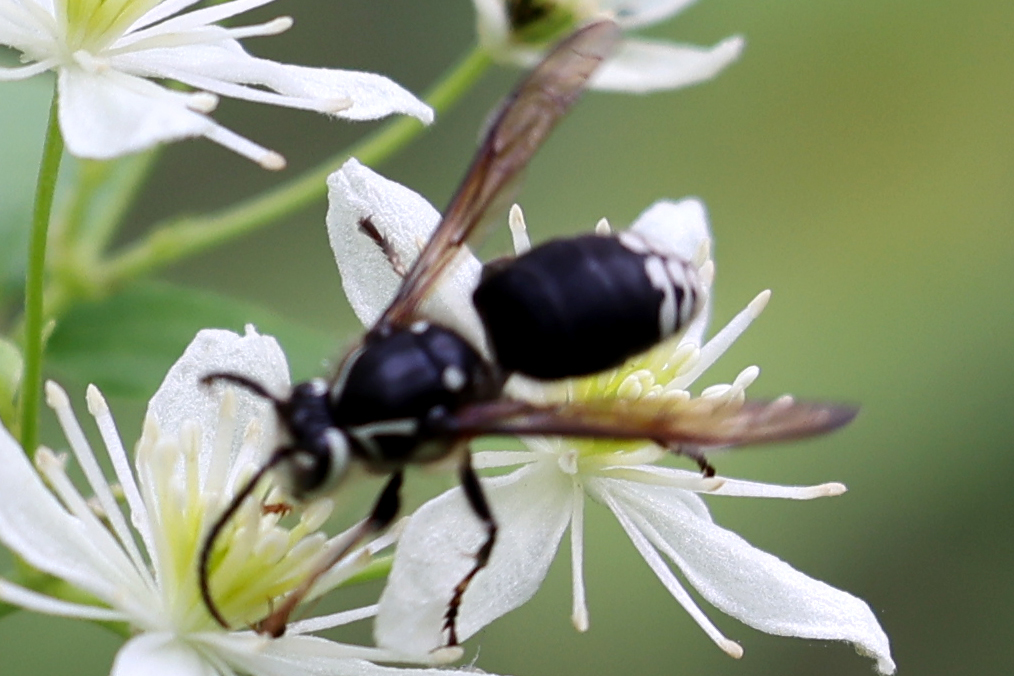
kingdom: Animalia
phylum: Arthropoda
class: Insecta
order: Hymenoptera
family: Vespidae
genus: Dolichovespula
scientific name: Dolichovespula maculata
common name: Bald-faced hornet
